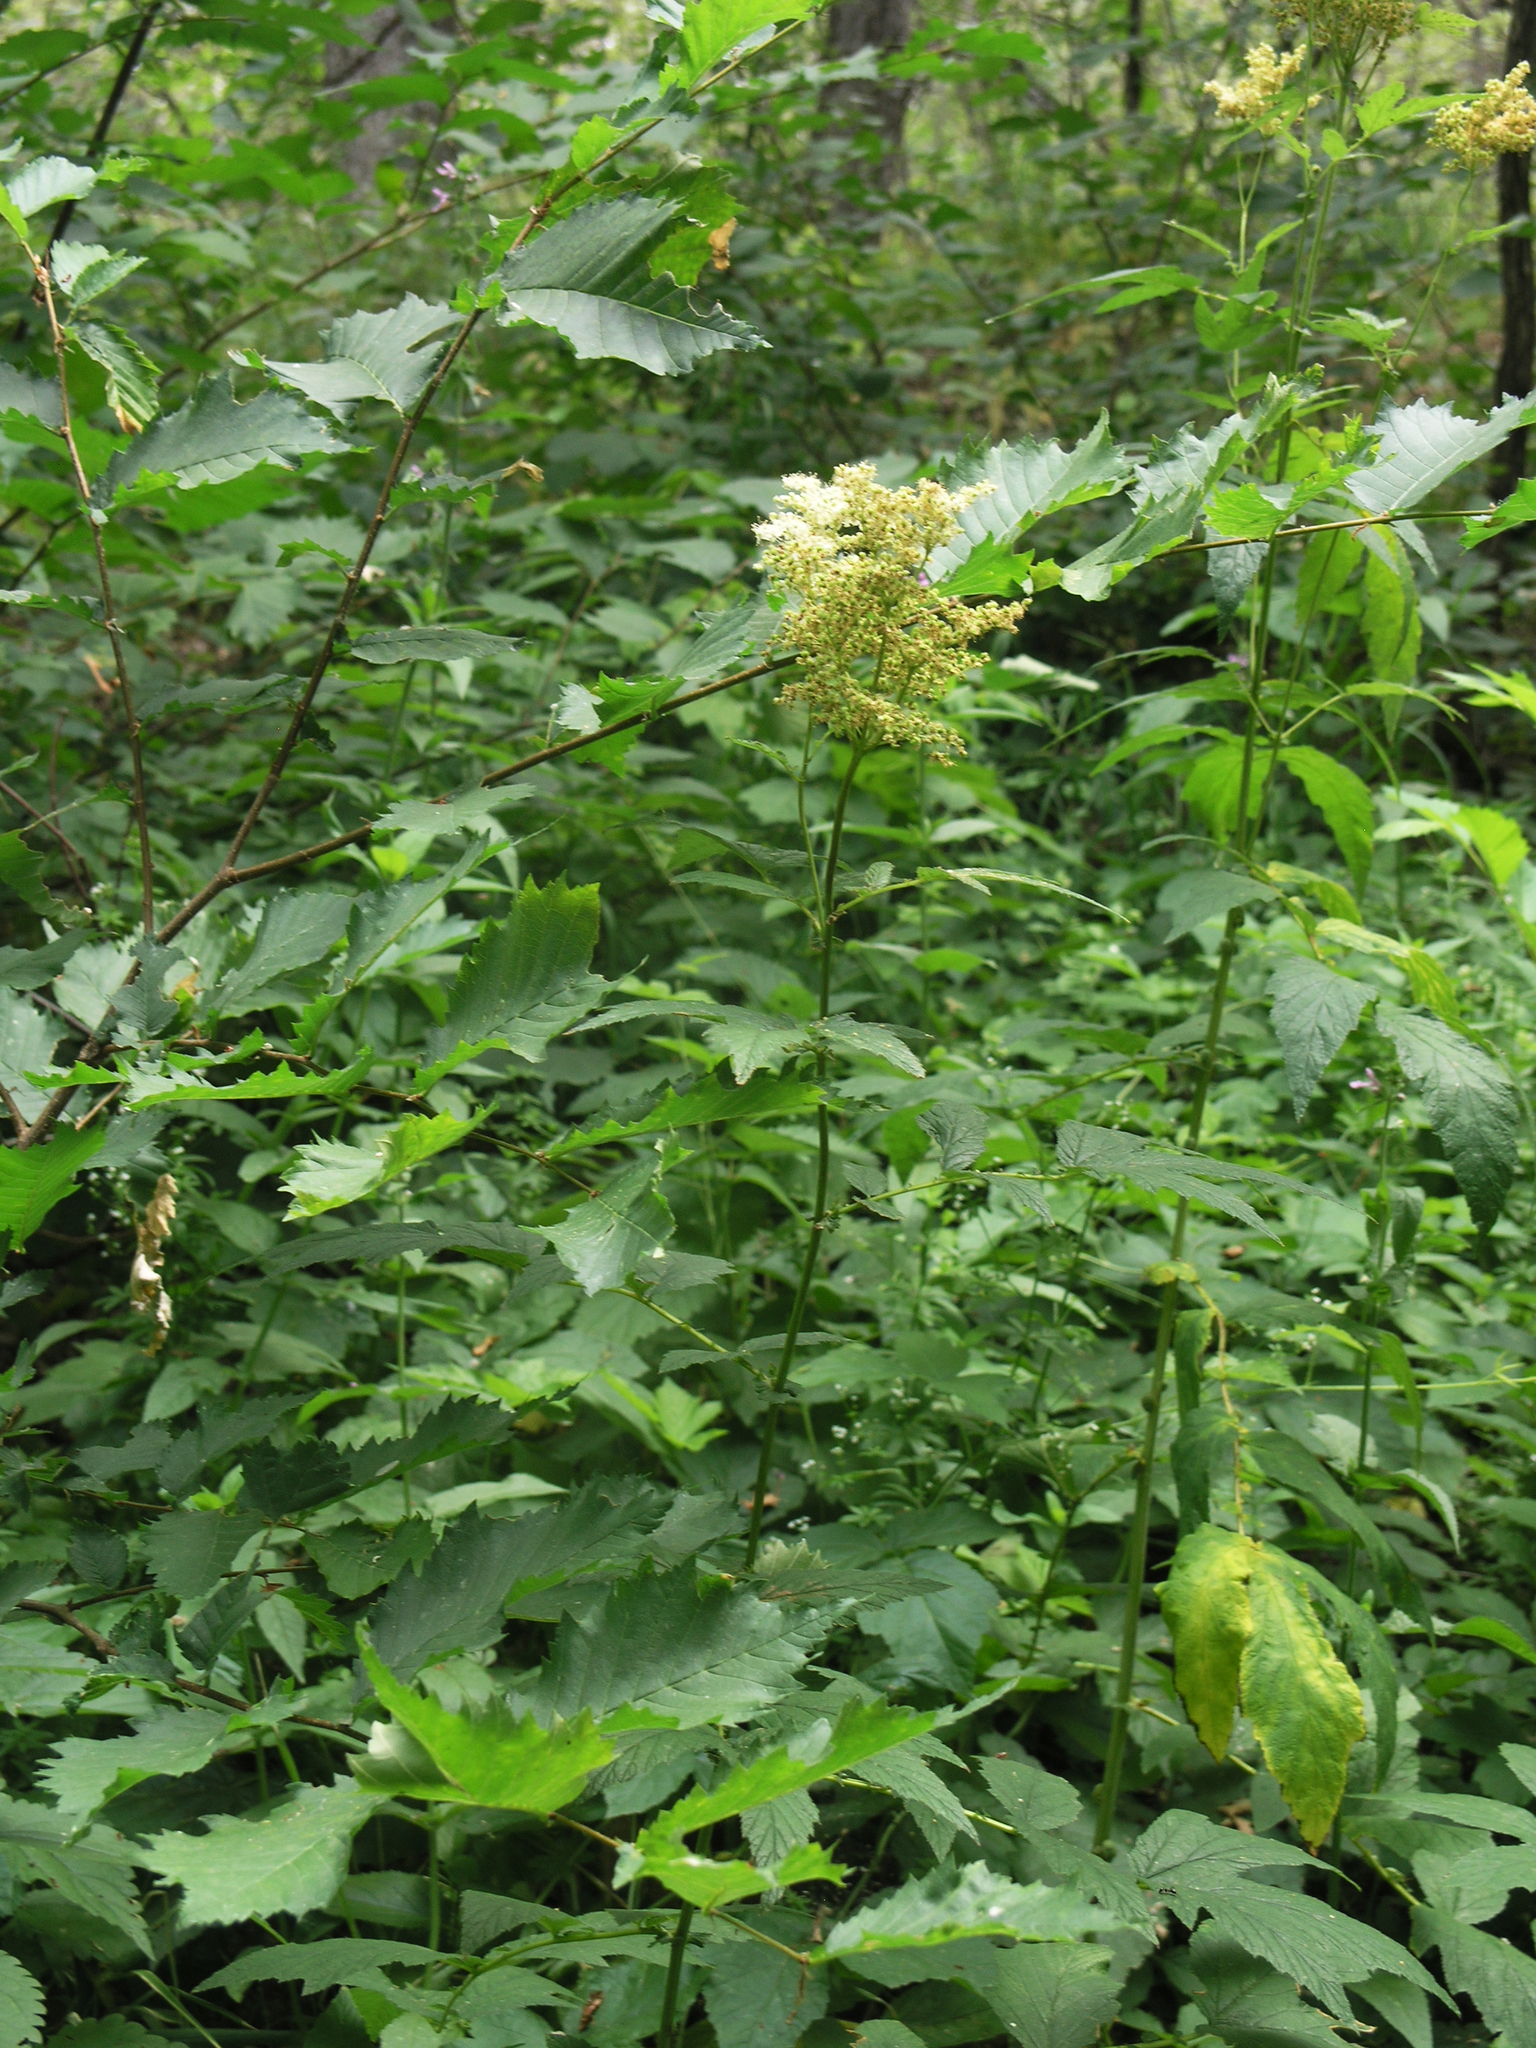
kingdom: Plantae
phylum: Tracheophyta
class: Magnoliopsida
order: Rosales
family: Rosaceae
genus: Filipendula
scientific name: Filipendula ulmaria
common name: Meadowsweet
